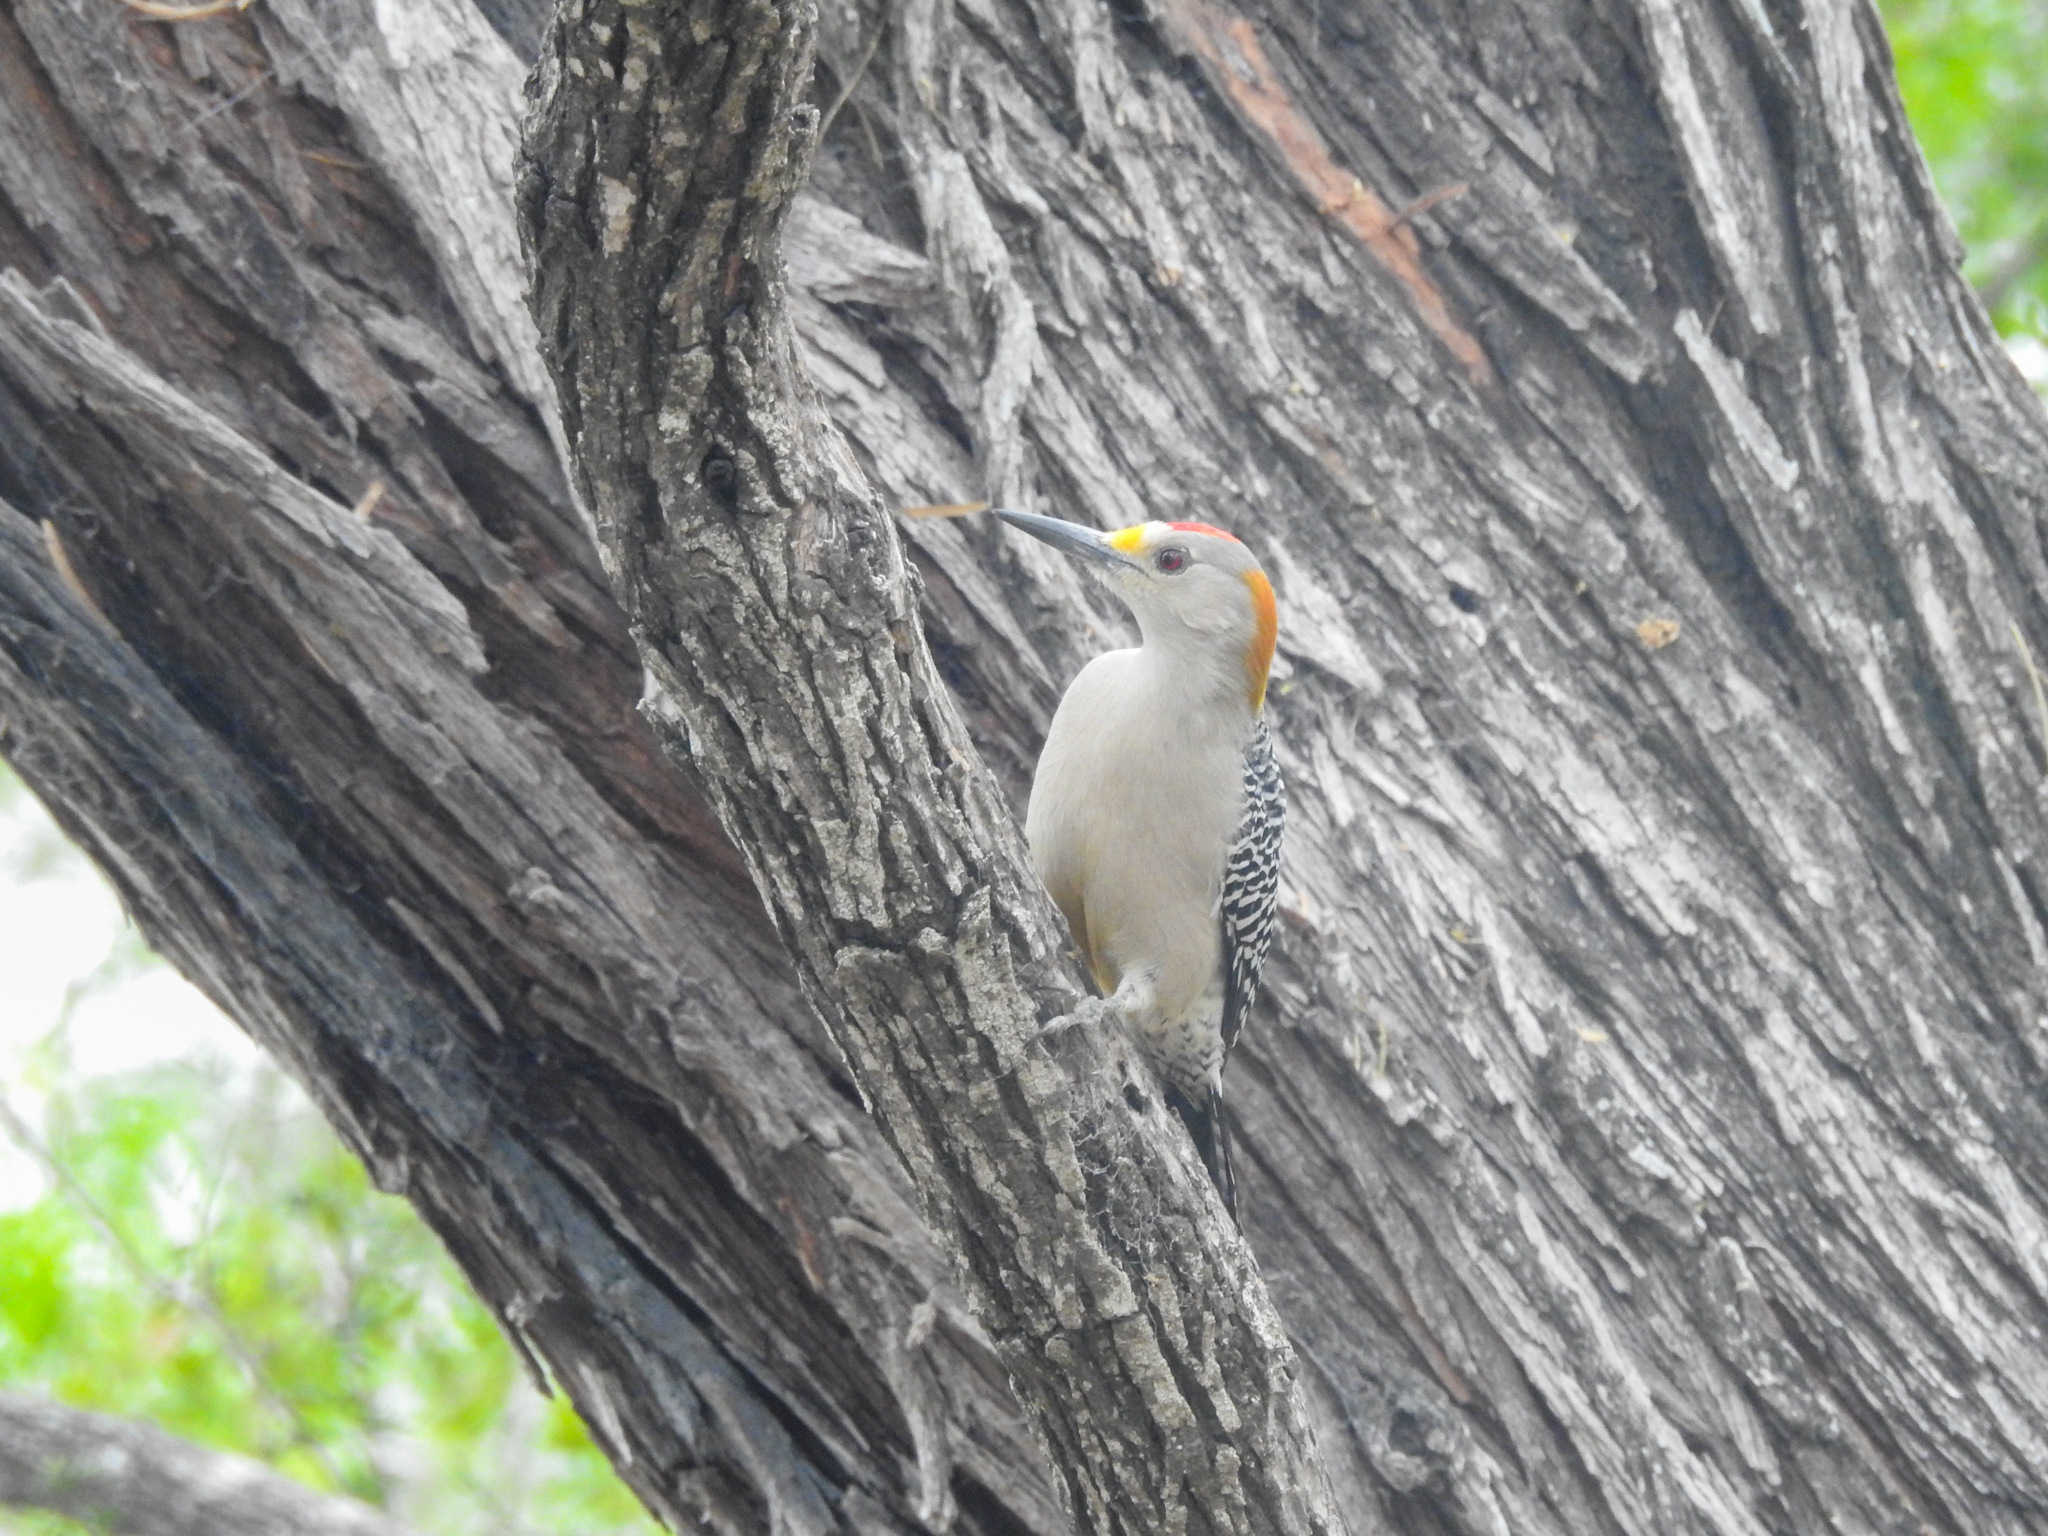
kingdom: Animalia
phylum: Chordata
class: Aves
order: Piciformes
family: Picidae
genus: Melanerpes
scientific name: Melanerpes aurifrons
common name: Golden-fronted woodpecker
